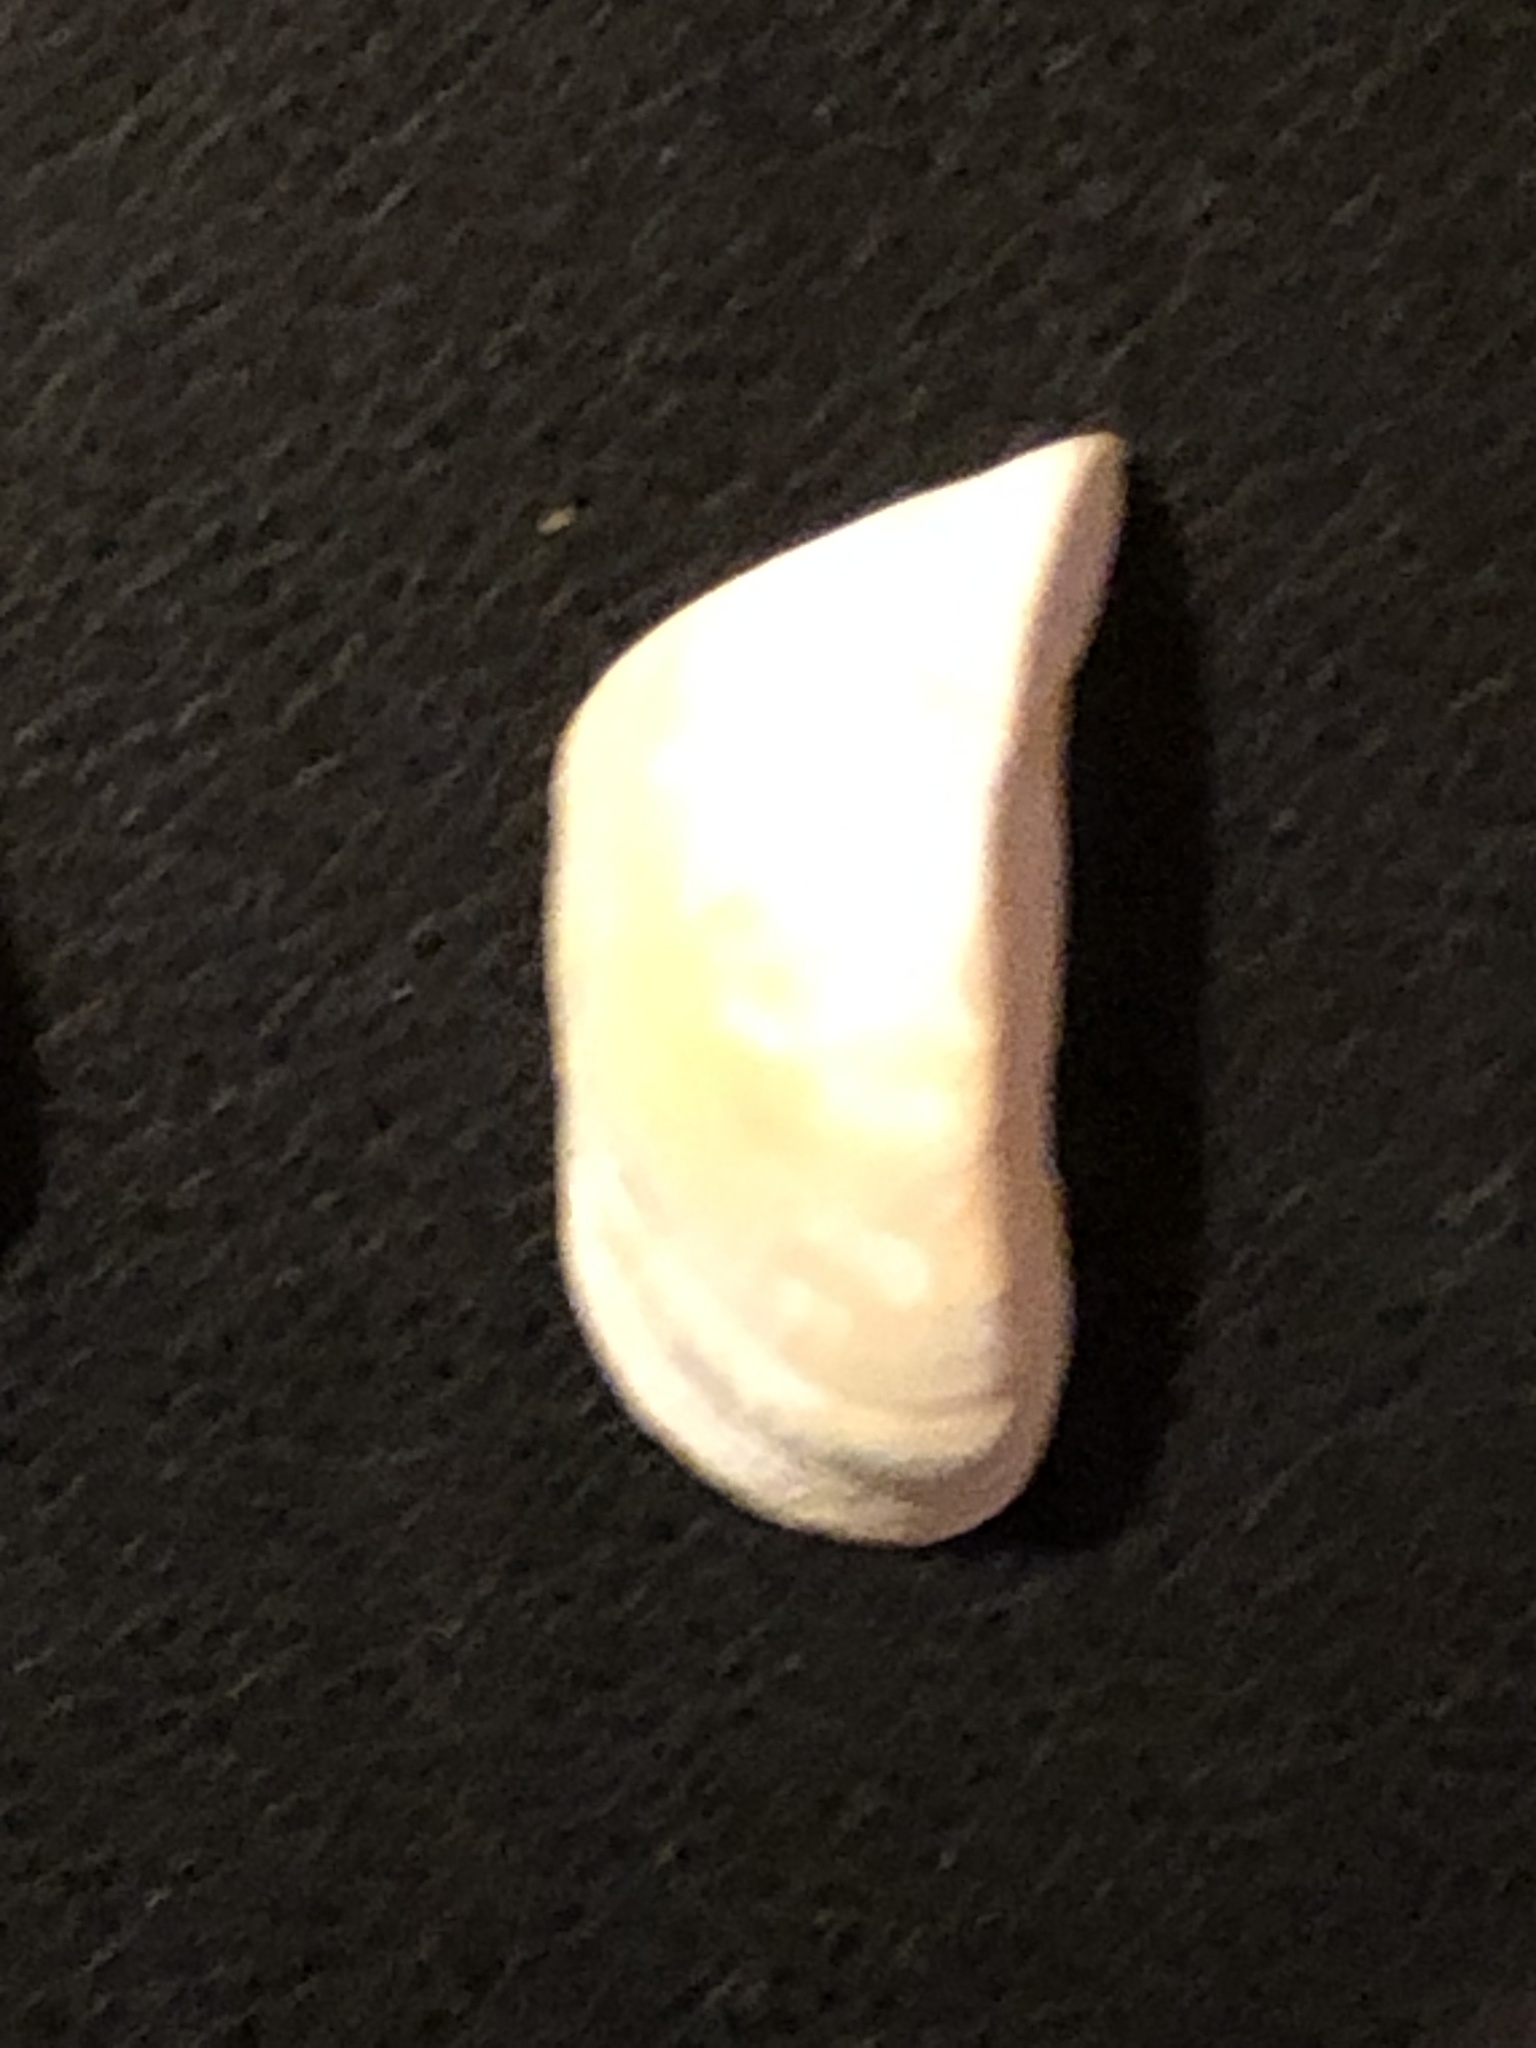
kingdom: Animalia
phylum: Mollusca
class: Bivalvia
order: Myida
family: Dreissenidae
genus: Dreissena
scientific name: Dreissena polymorpha
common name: Zebra mussel
